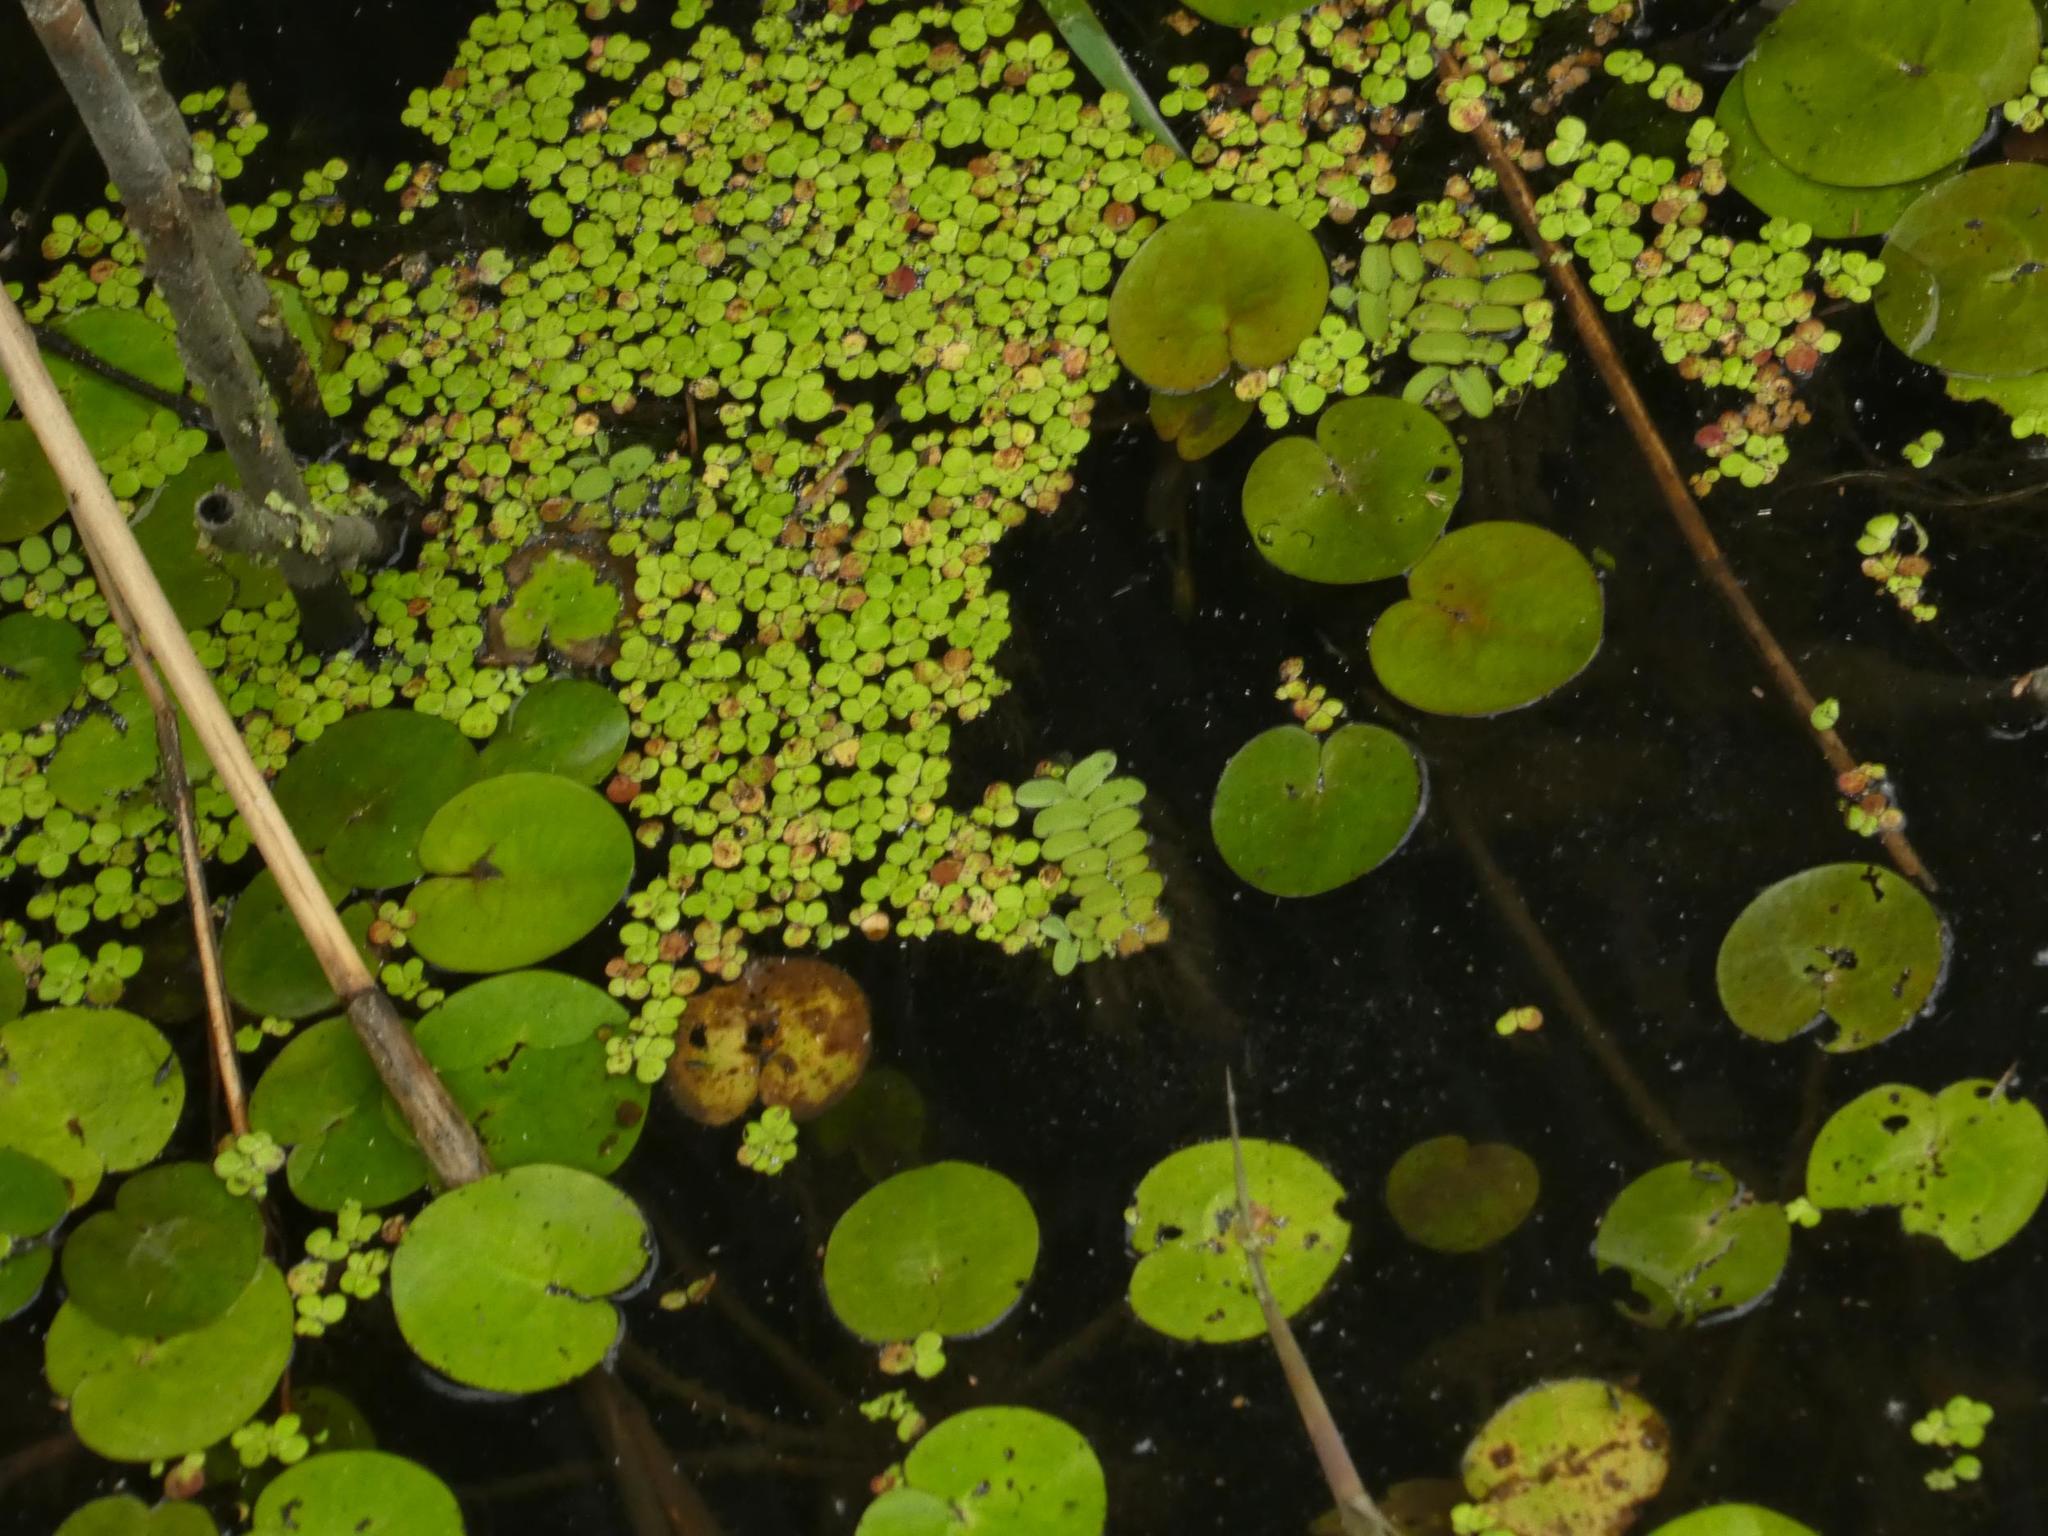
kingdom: Plantae
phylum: Tracheophyta
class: Liliopsida
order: Alismatales
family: Araceae
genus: Spirodela
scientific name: Spirodela polyrhiza
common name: Great duckweed
